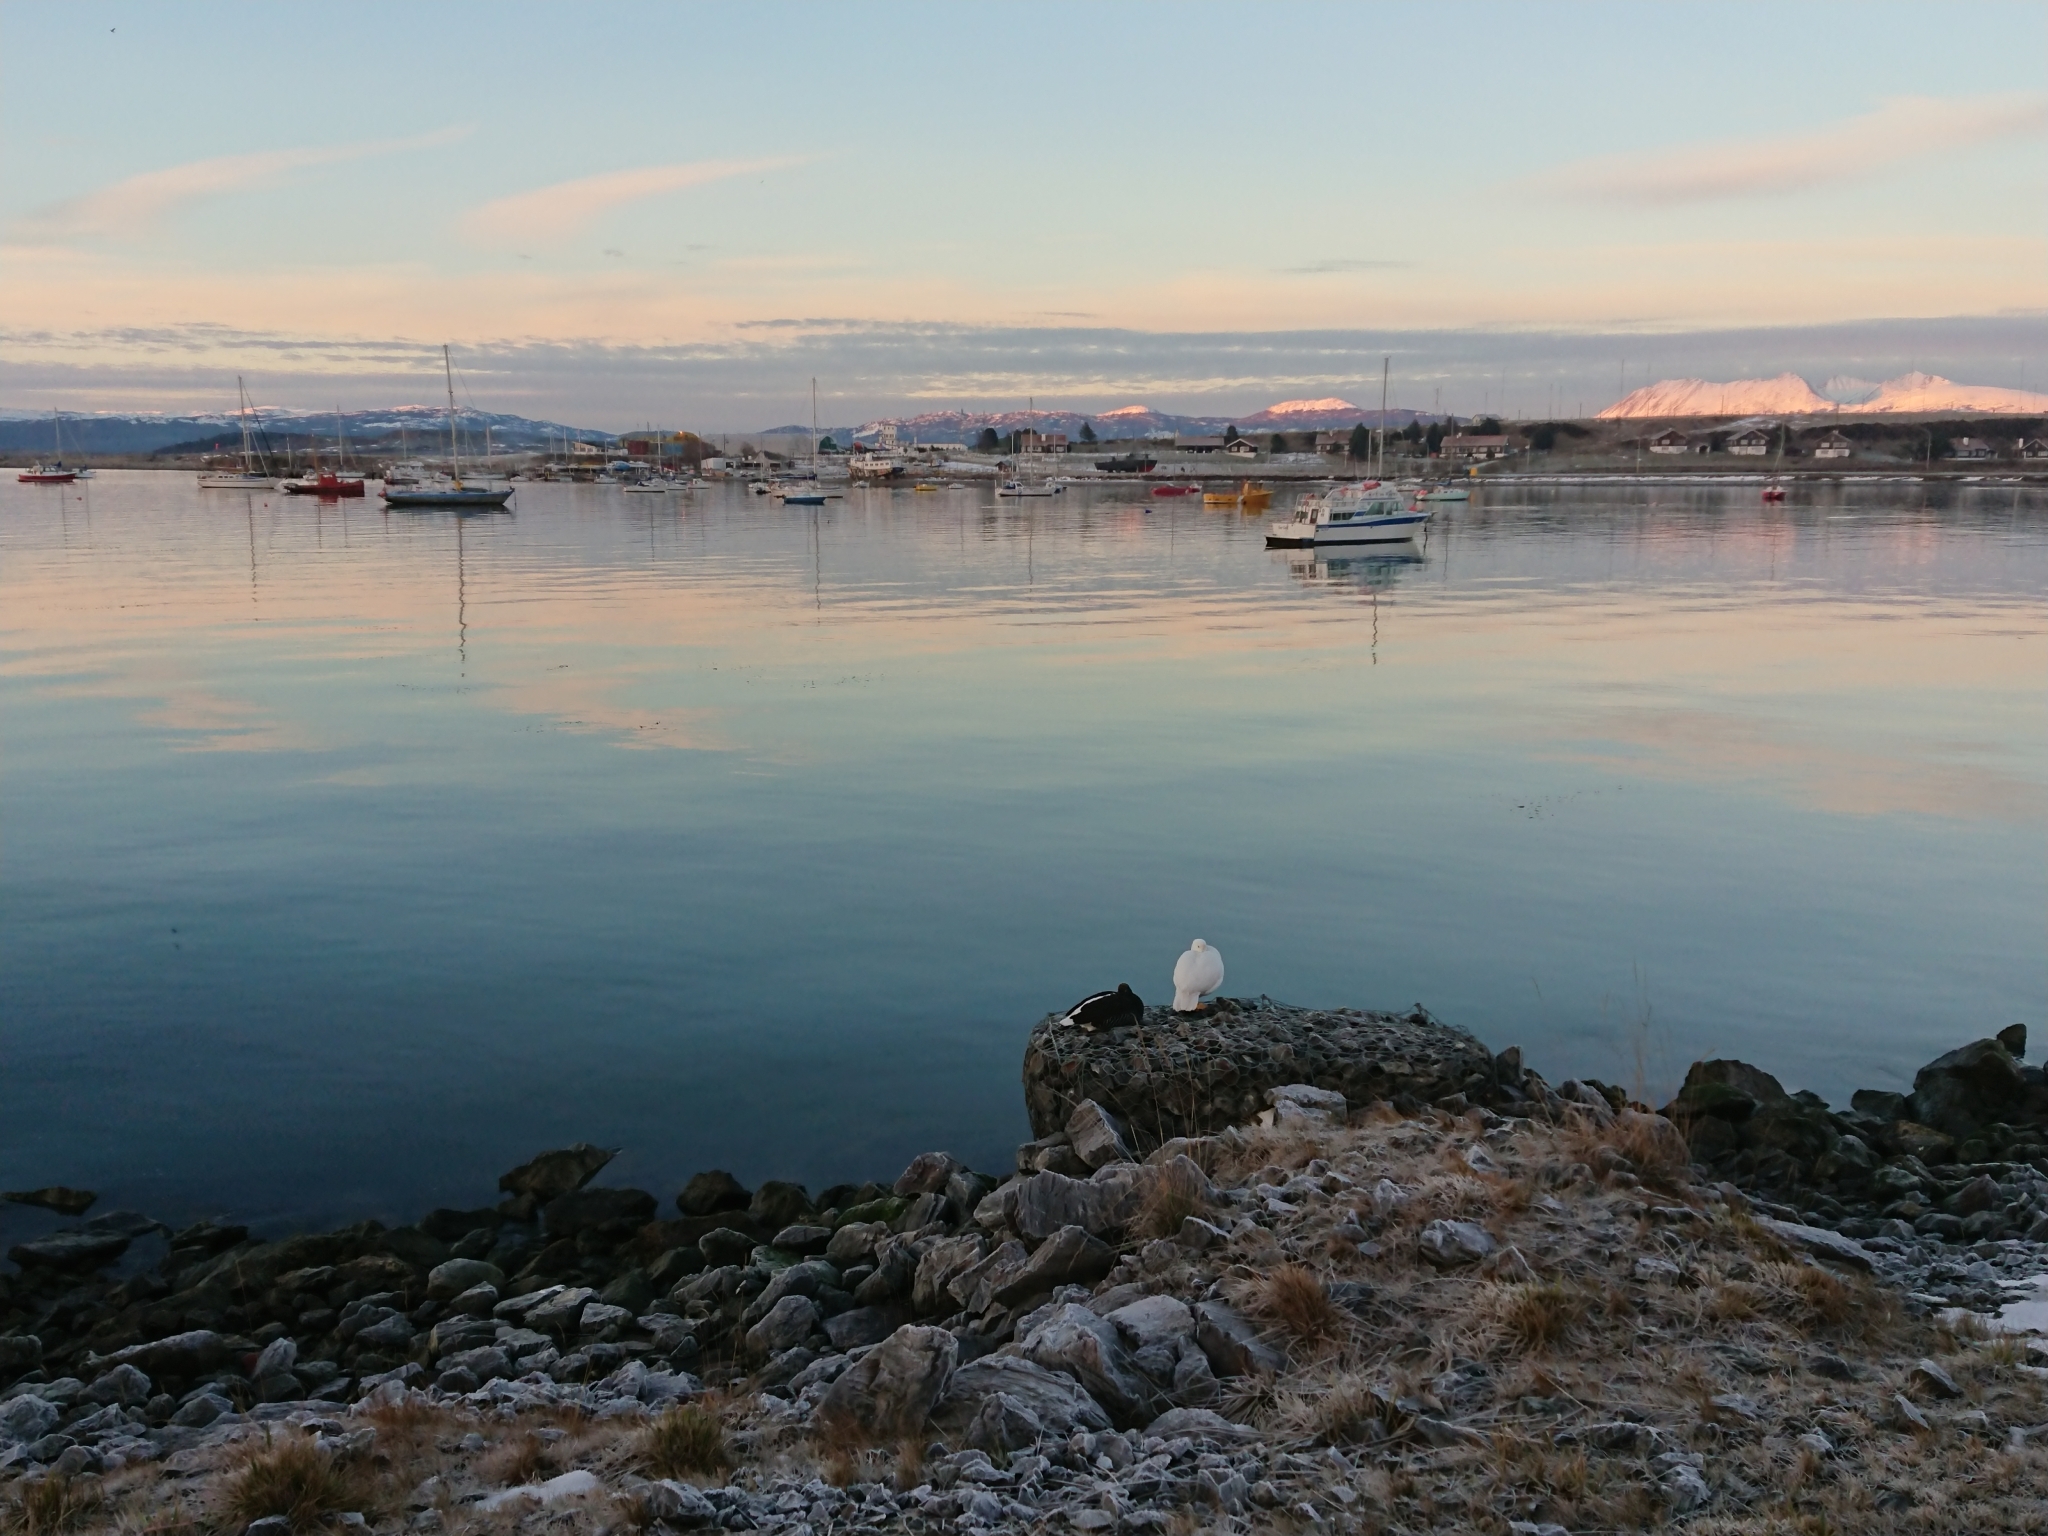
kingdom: Animalia
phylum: Chordata
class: Aves
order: Anseriformes
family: Anatidae
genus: Chloephaga
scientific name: Chloephaga hybrida
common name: Kelp goose
